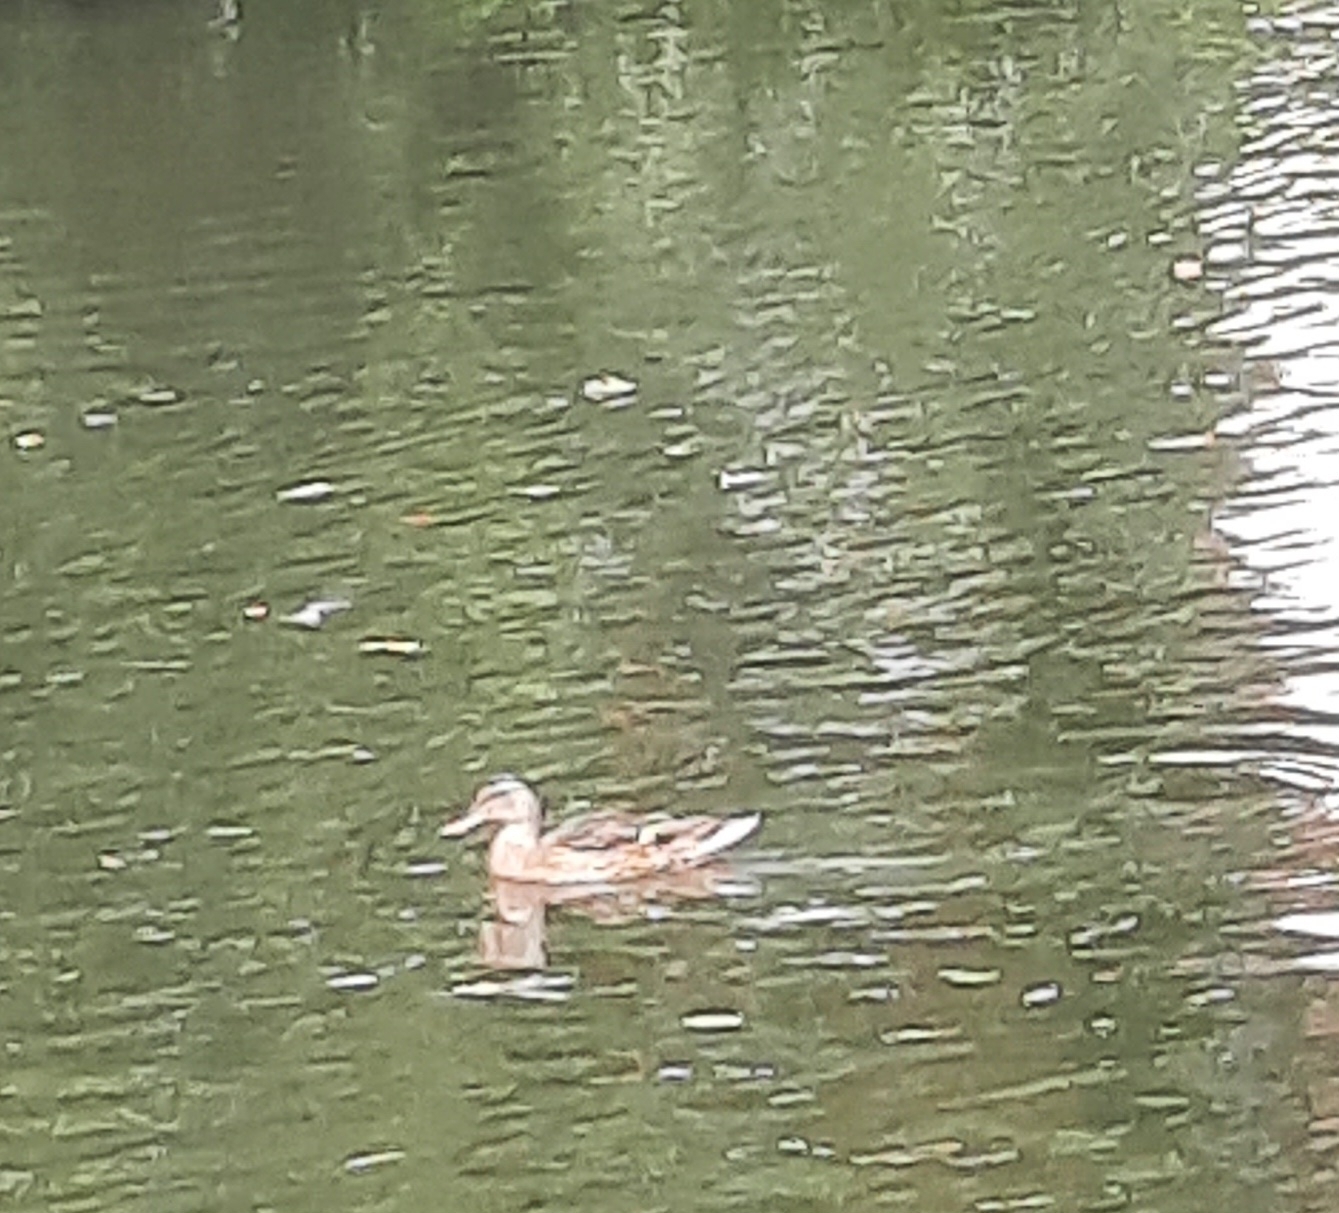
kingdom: Animalia
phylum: Chordata
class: Aves
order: Anseriformes
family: Anatidae
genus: Anas
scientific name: Anas platyrhynchos
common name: Mallard
